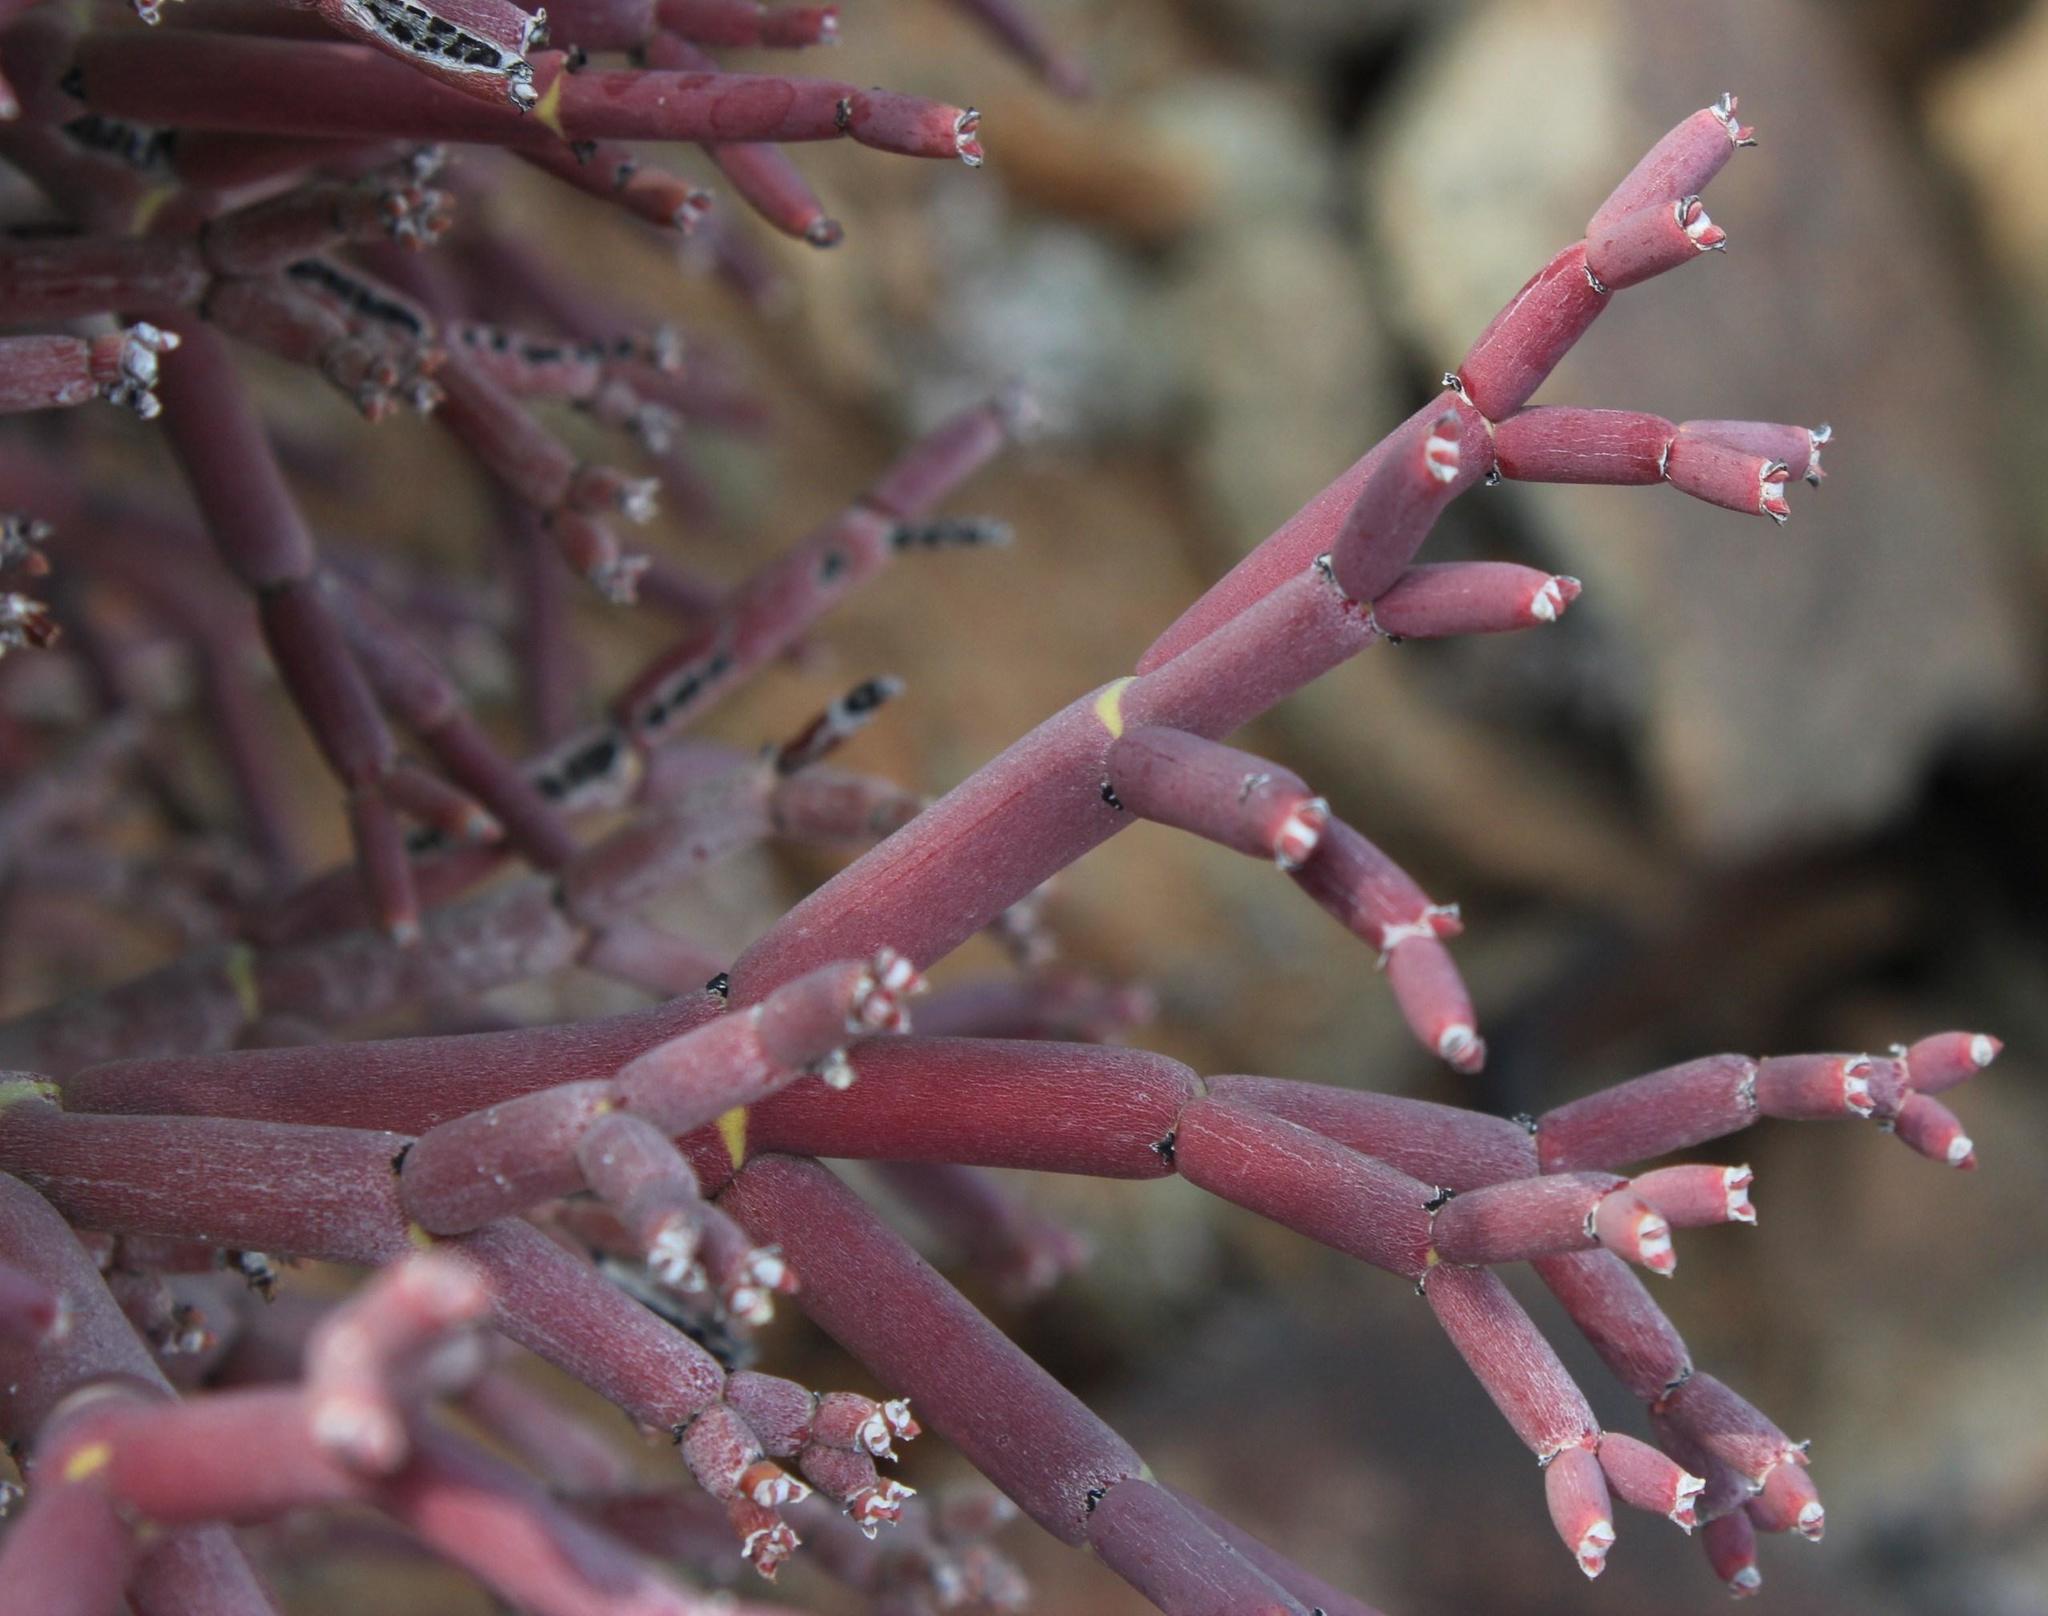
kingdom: Plantae
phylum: Tracheophyta
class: Magnoliopsida
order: Malpighiales
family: Euphorbiaceae
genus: Euphorbia
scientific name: Euphorbia rhombifolia
